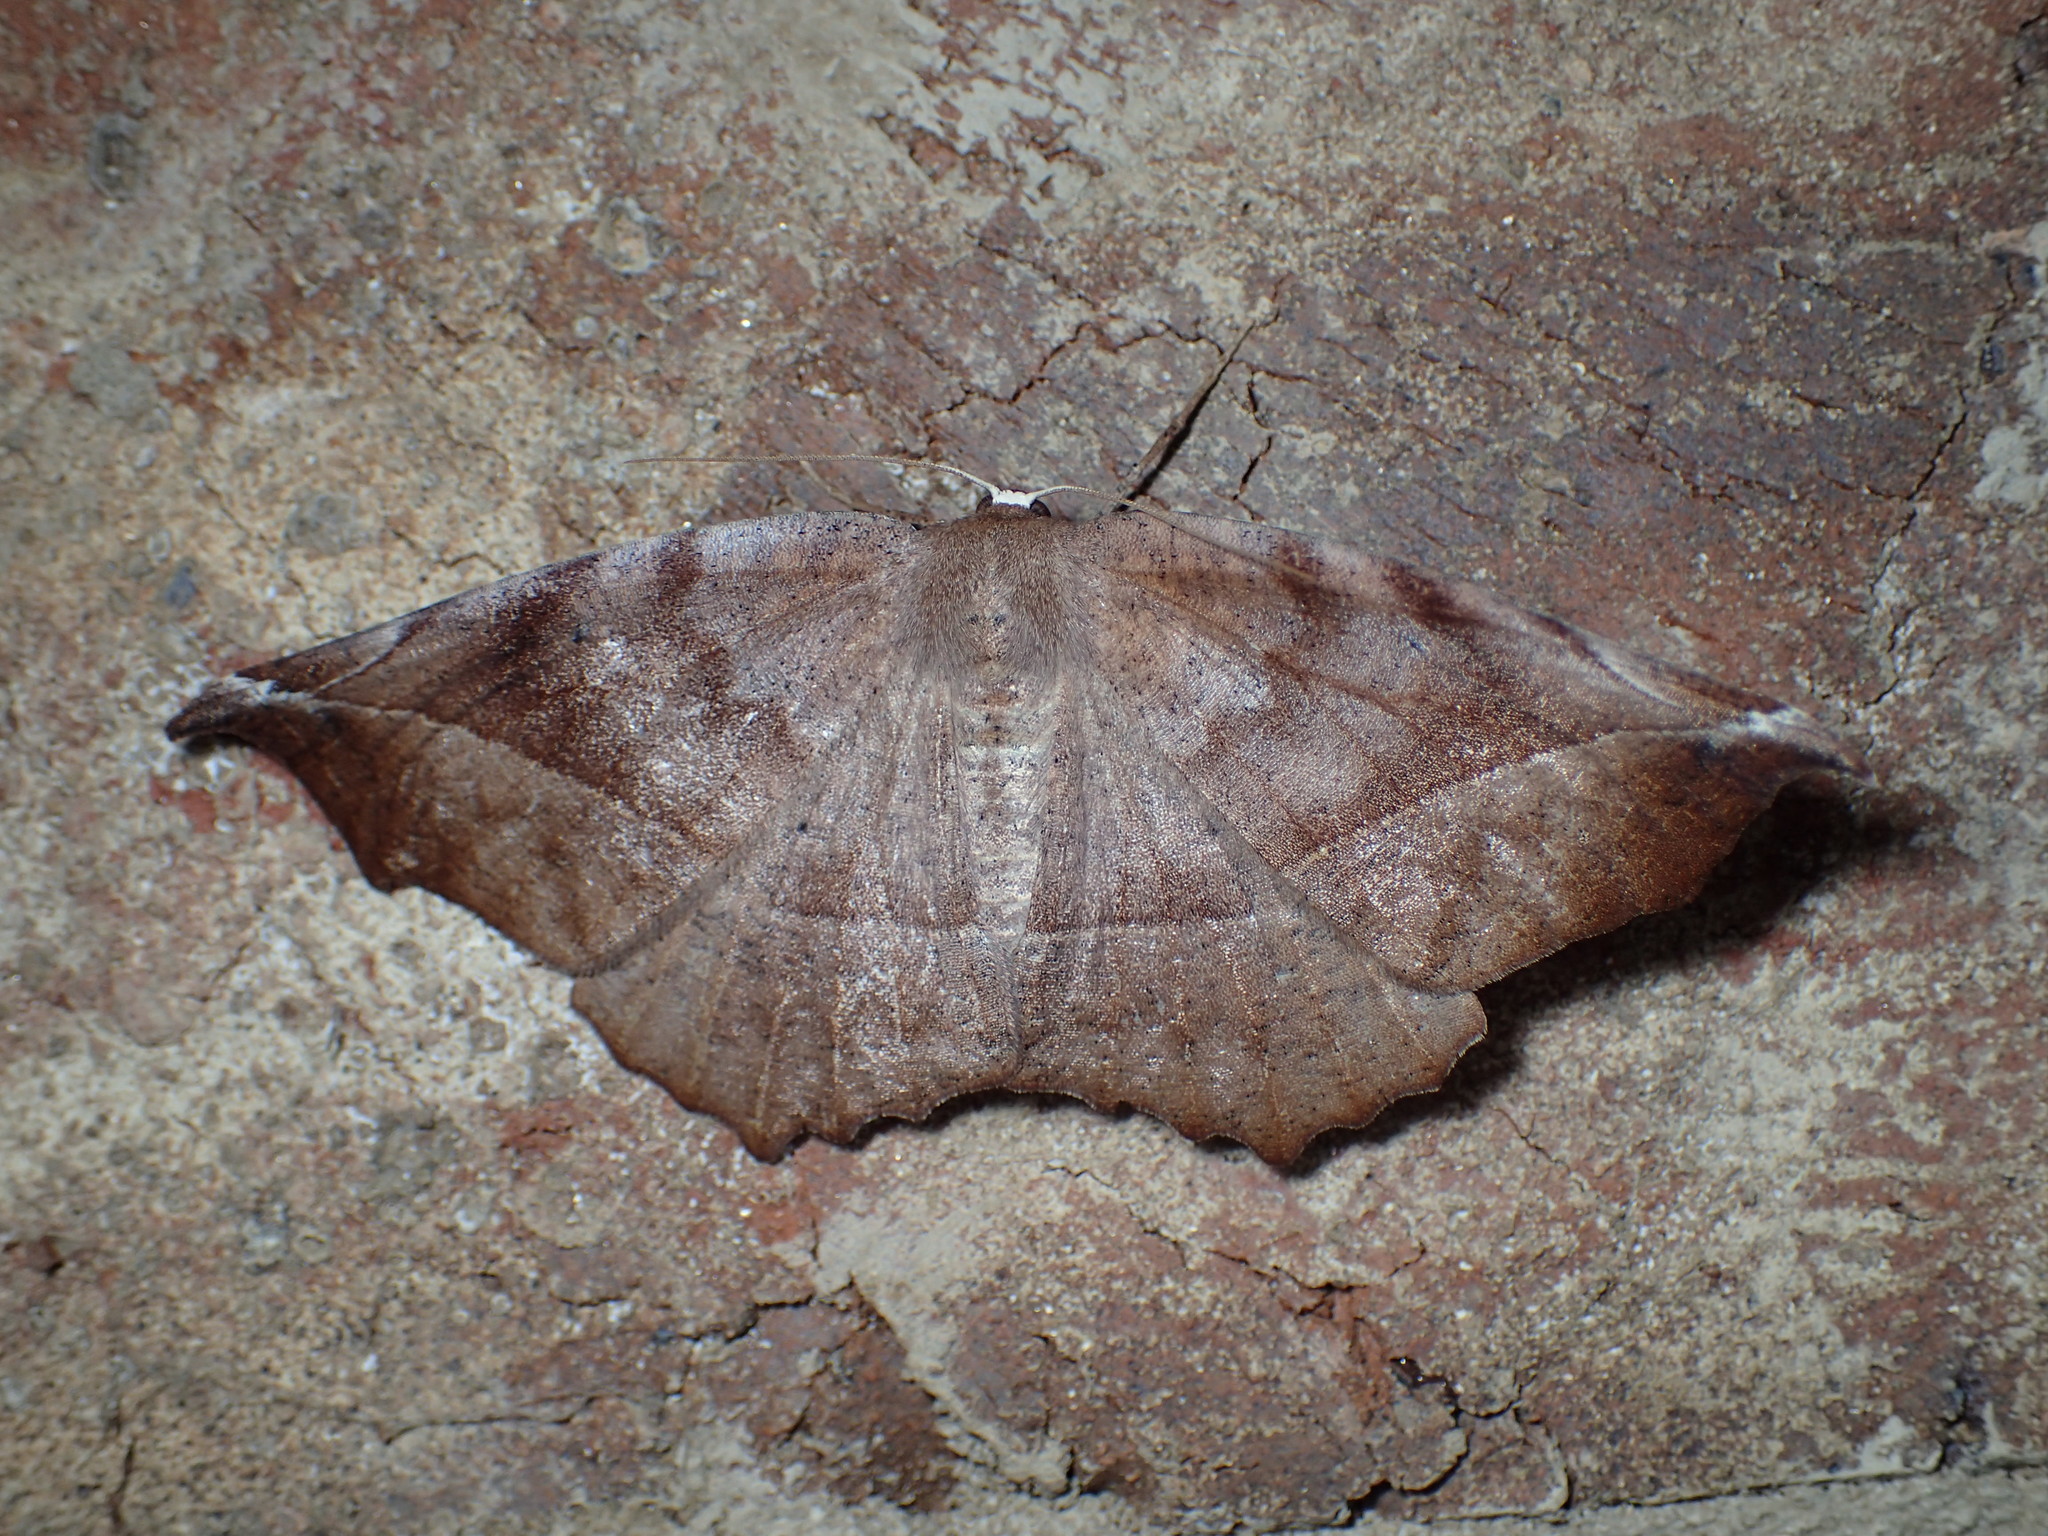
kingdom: Animalia
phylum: Arthropoda
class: Insecta
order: Lepidoptera
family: Geometridae
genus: Eutrapela
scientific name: Eutrapela clemataria
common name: Curved-toothed geometer
